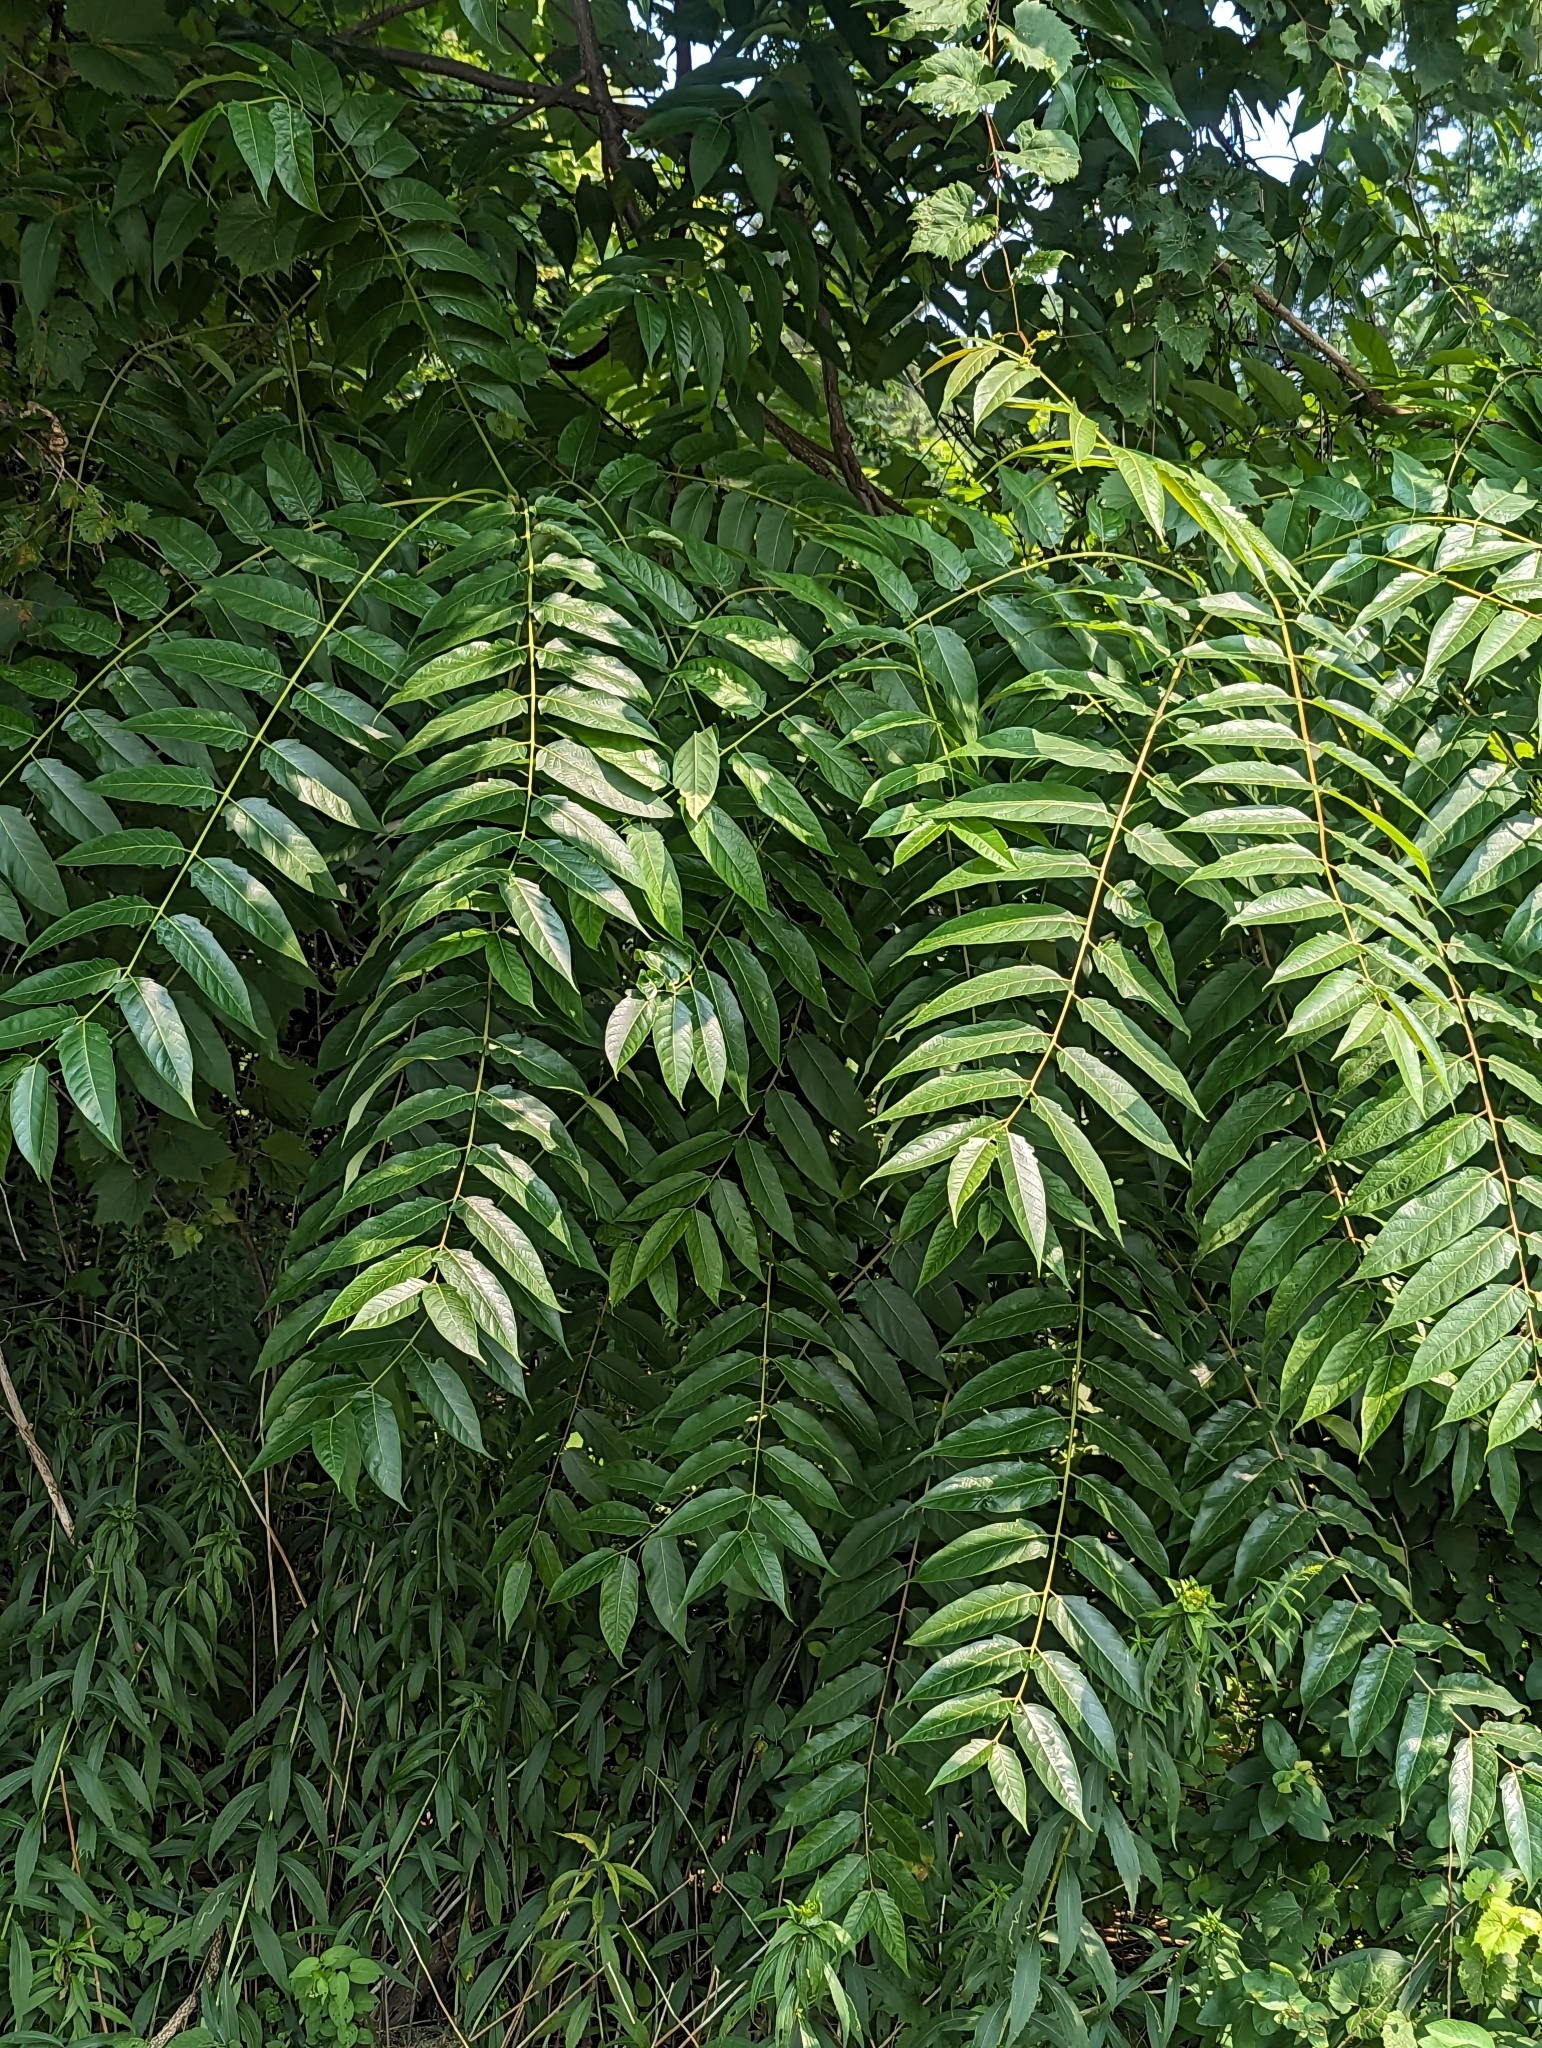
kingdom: Plantae
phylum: Tracheophyta
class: Magnoliopsida
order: Sapindales
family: Simaroubaceae
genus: Ailanthus
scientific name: Ailanthus altissima
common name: Tree-of-heaven
